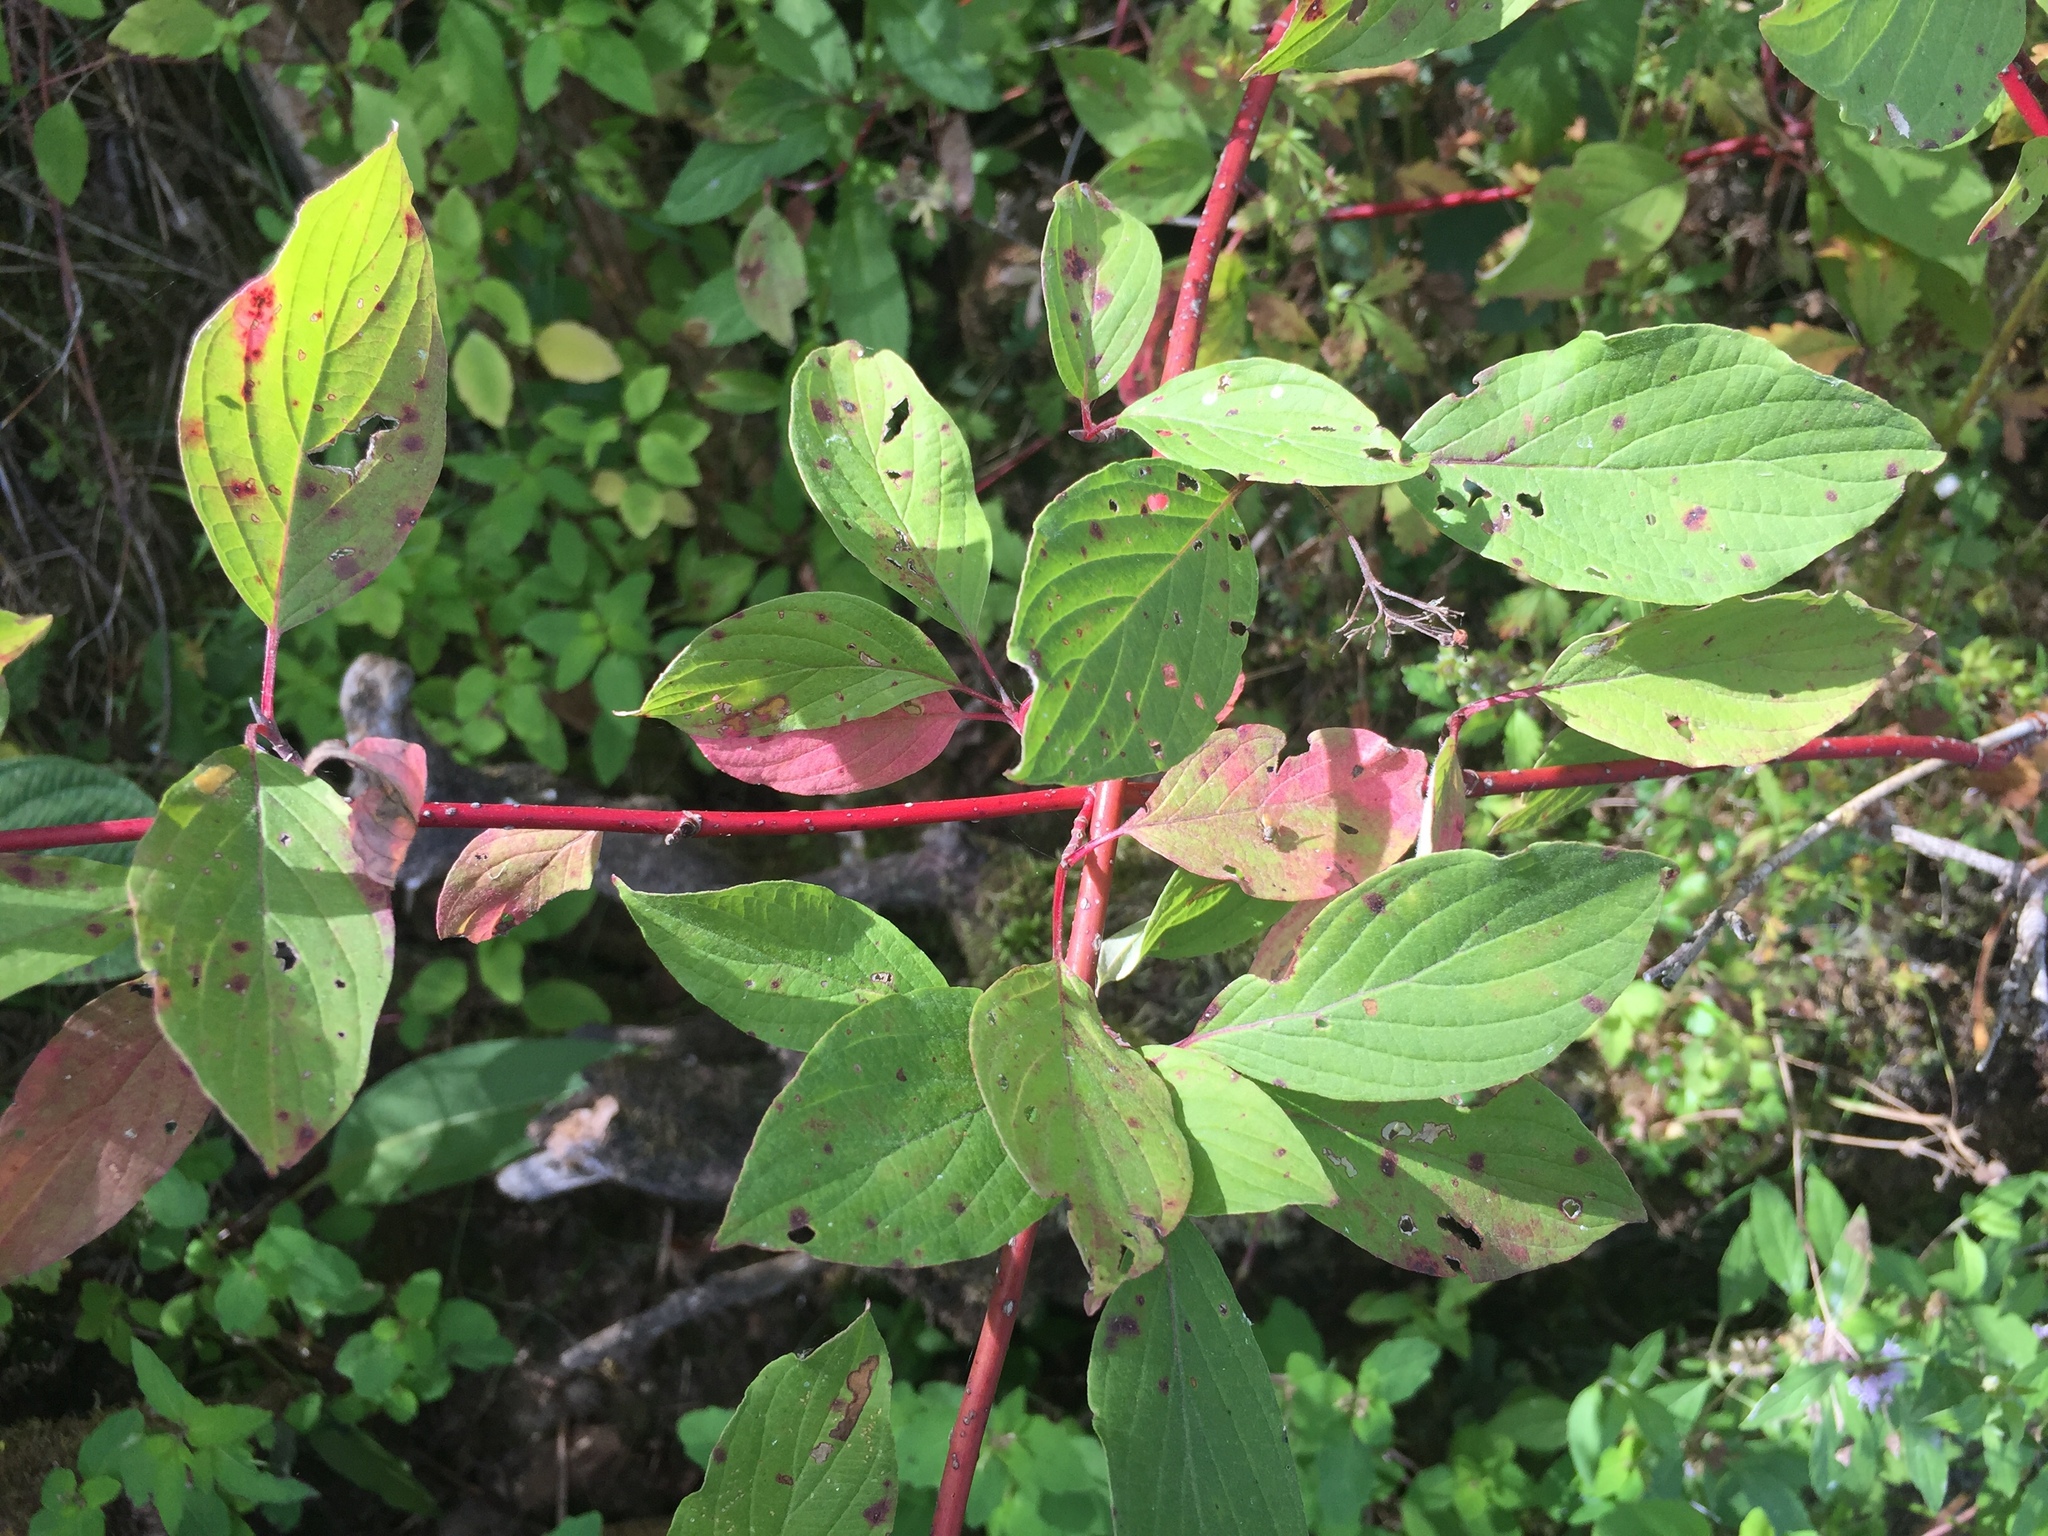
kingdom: Plantae
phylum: Tracheophyta
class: Magnoliopsida
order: Cornales
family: Cornaceae
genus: Cornus
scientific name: Cornus sericea
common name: Red-osier dogwood
